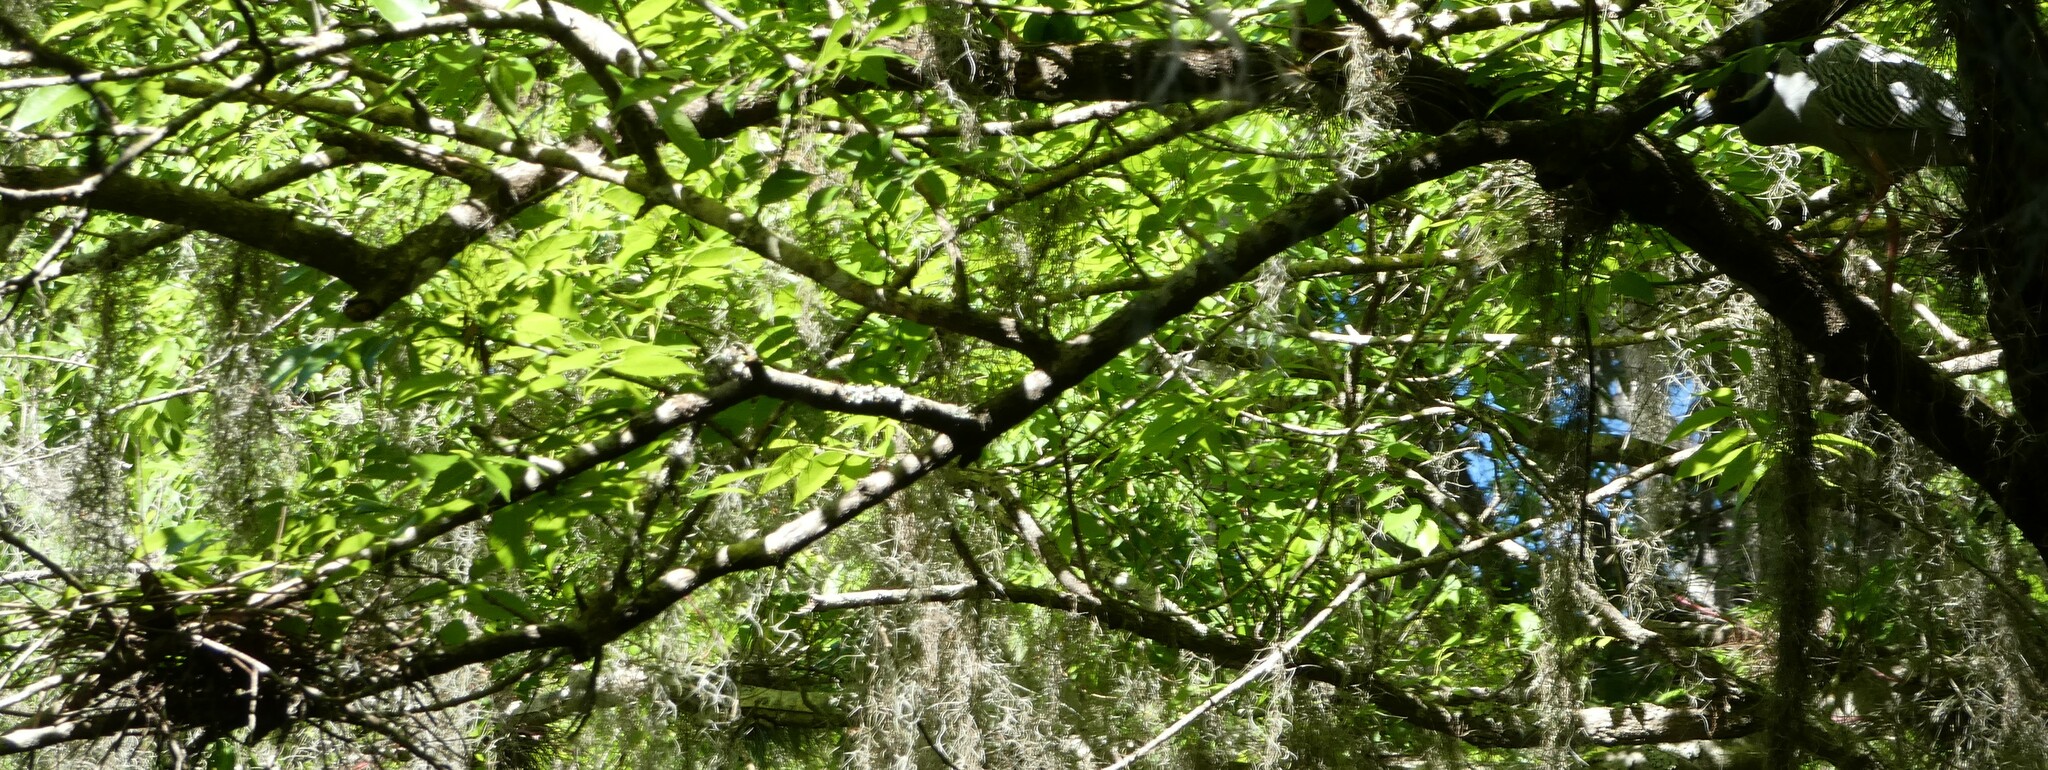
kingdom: Animalia
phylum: Chordata
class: Aves
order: Pelecaniformes
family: Ardeidae
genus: Nyctanassa
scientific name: Nyctanassa violacea
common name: Yellow-crowned night heron
